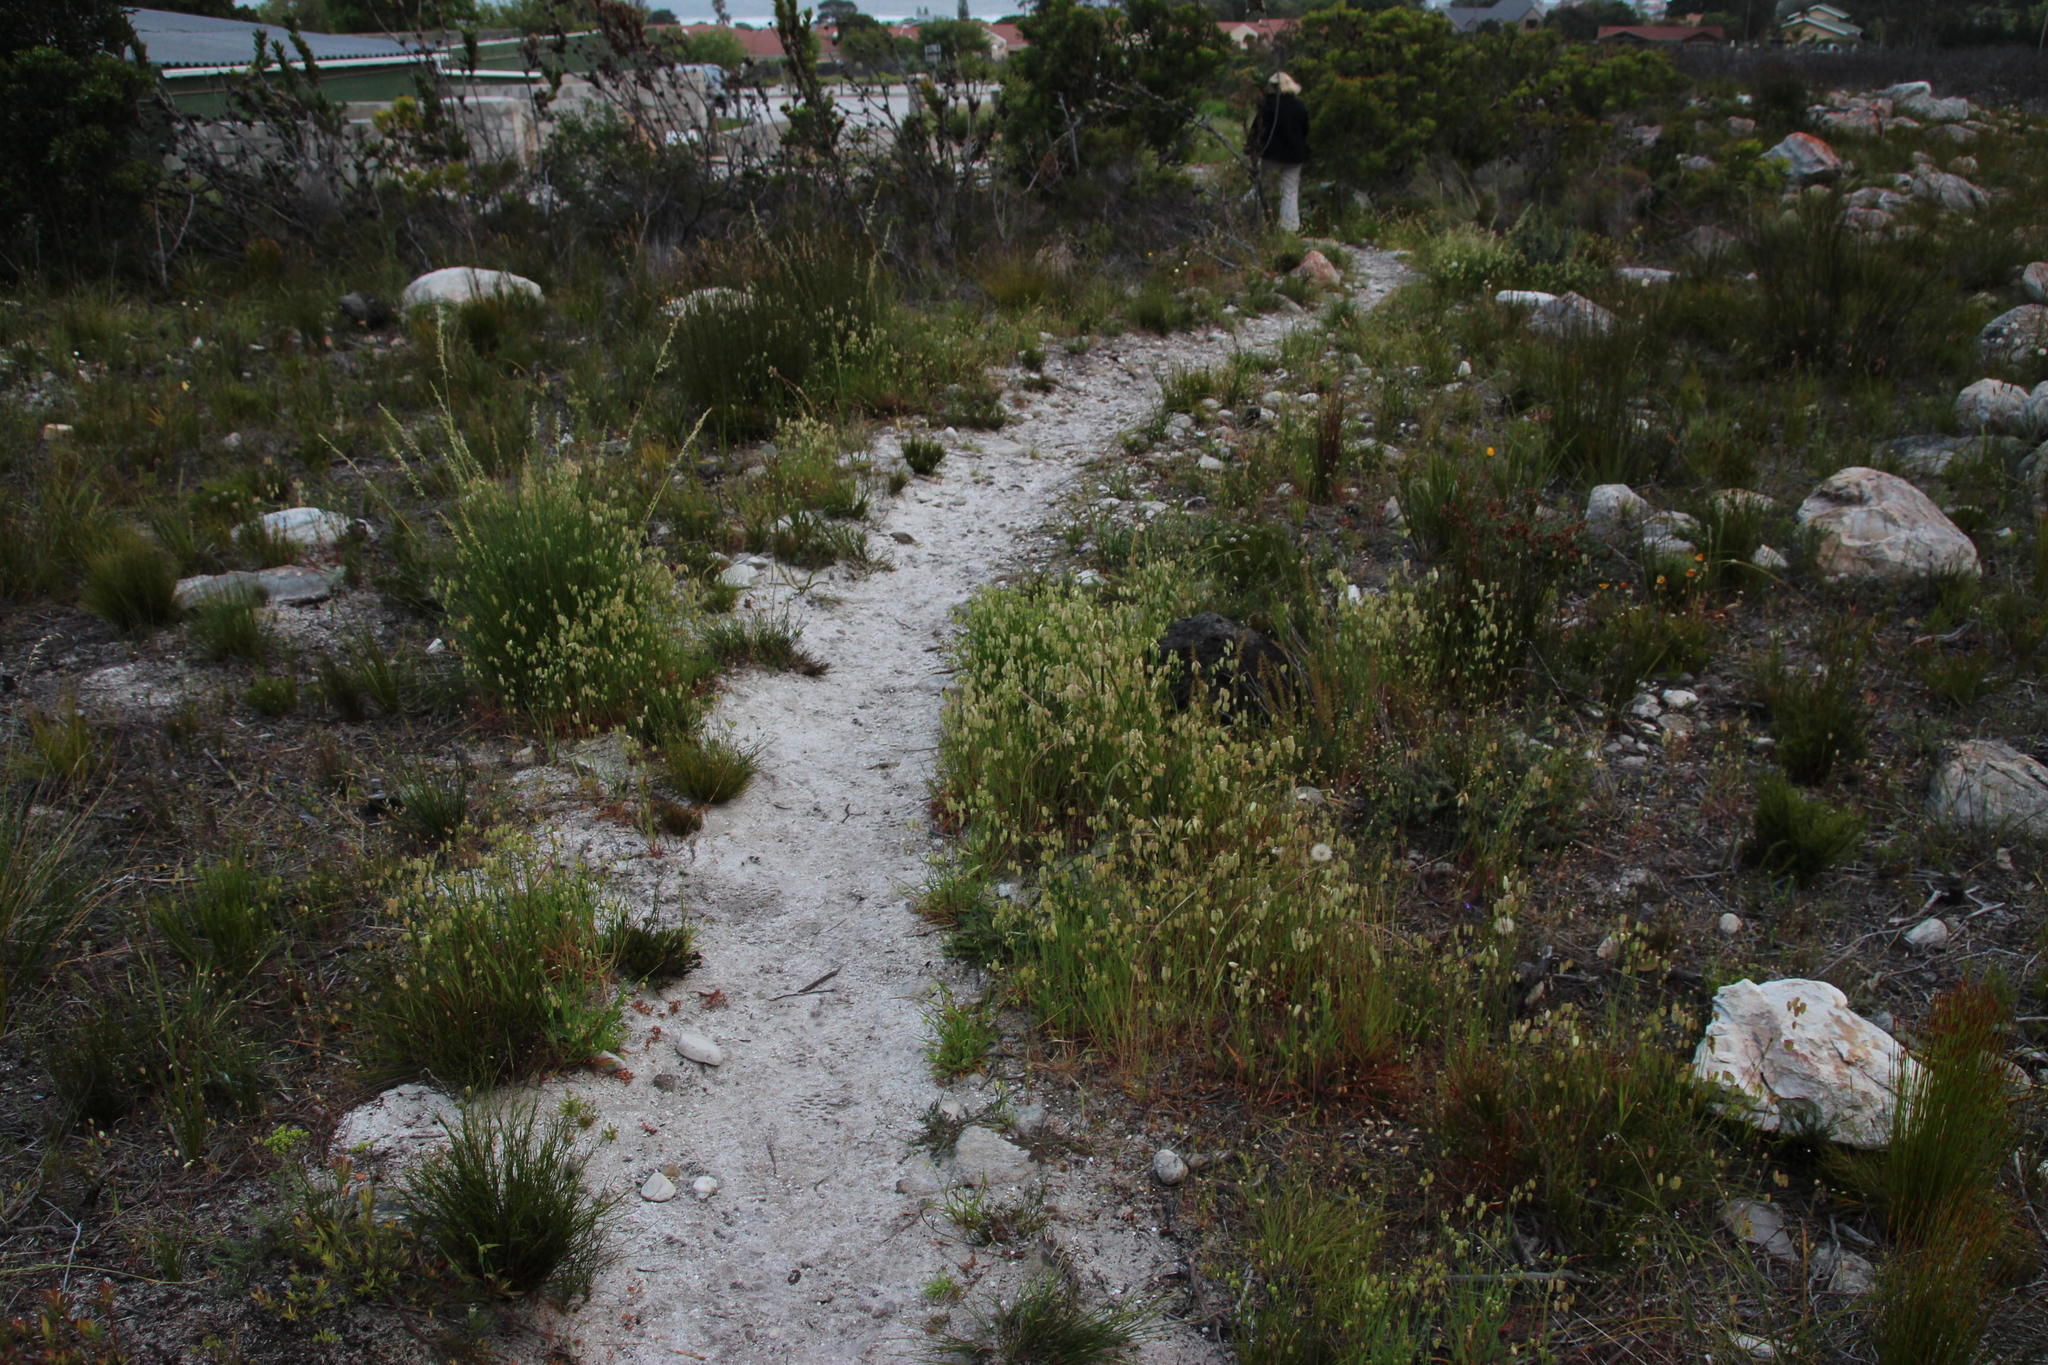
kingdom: Plantae
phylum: Tracheophyta
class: Liliopsida
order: Poales
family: Poaceae
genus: Briza
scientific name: Briza maxima
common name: Big quakinggrass
